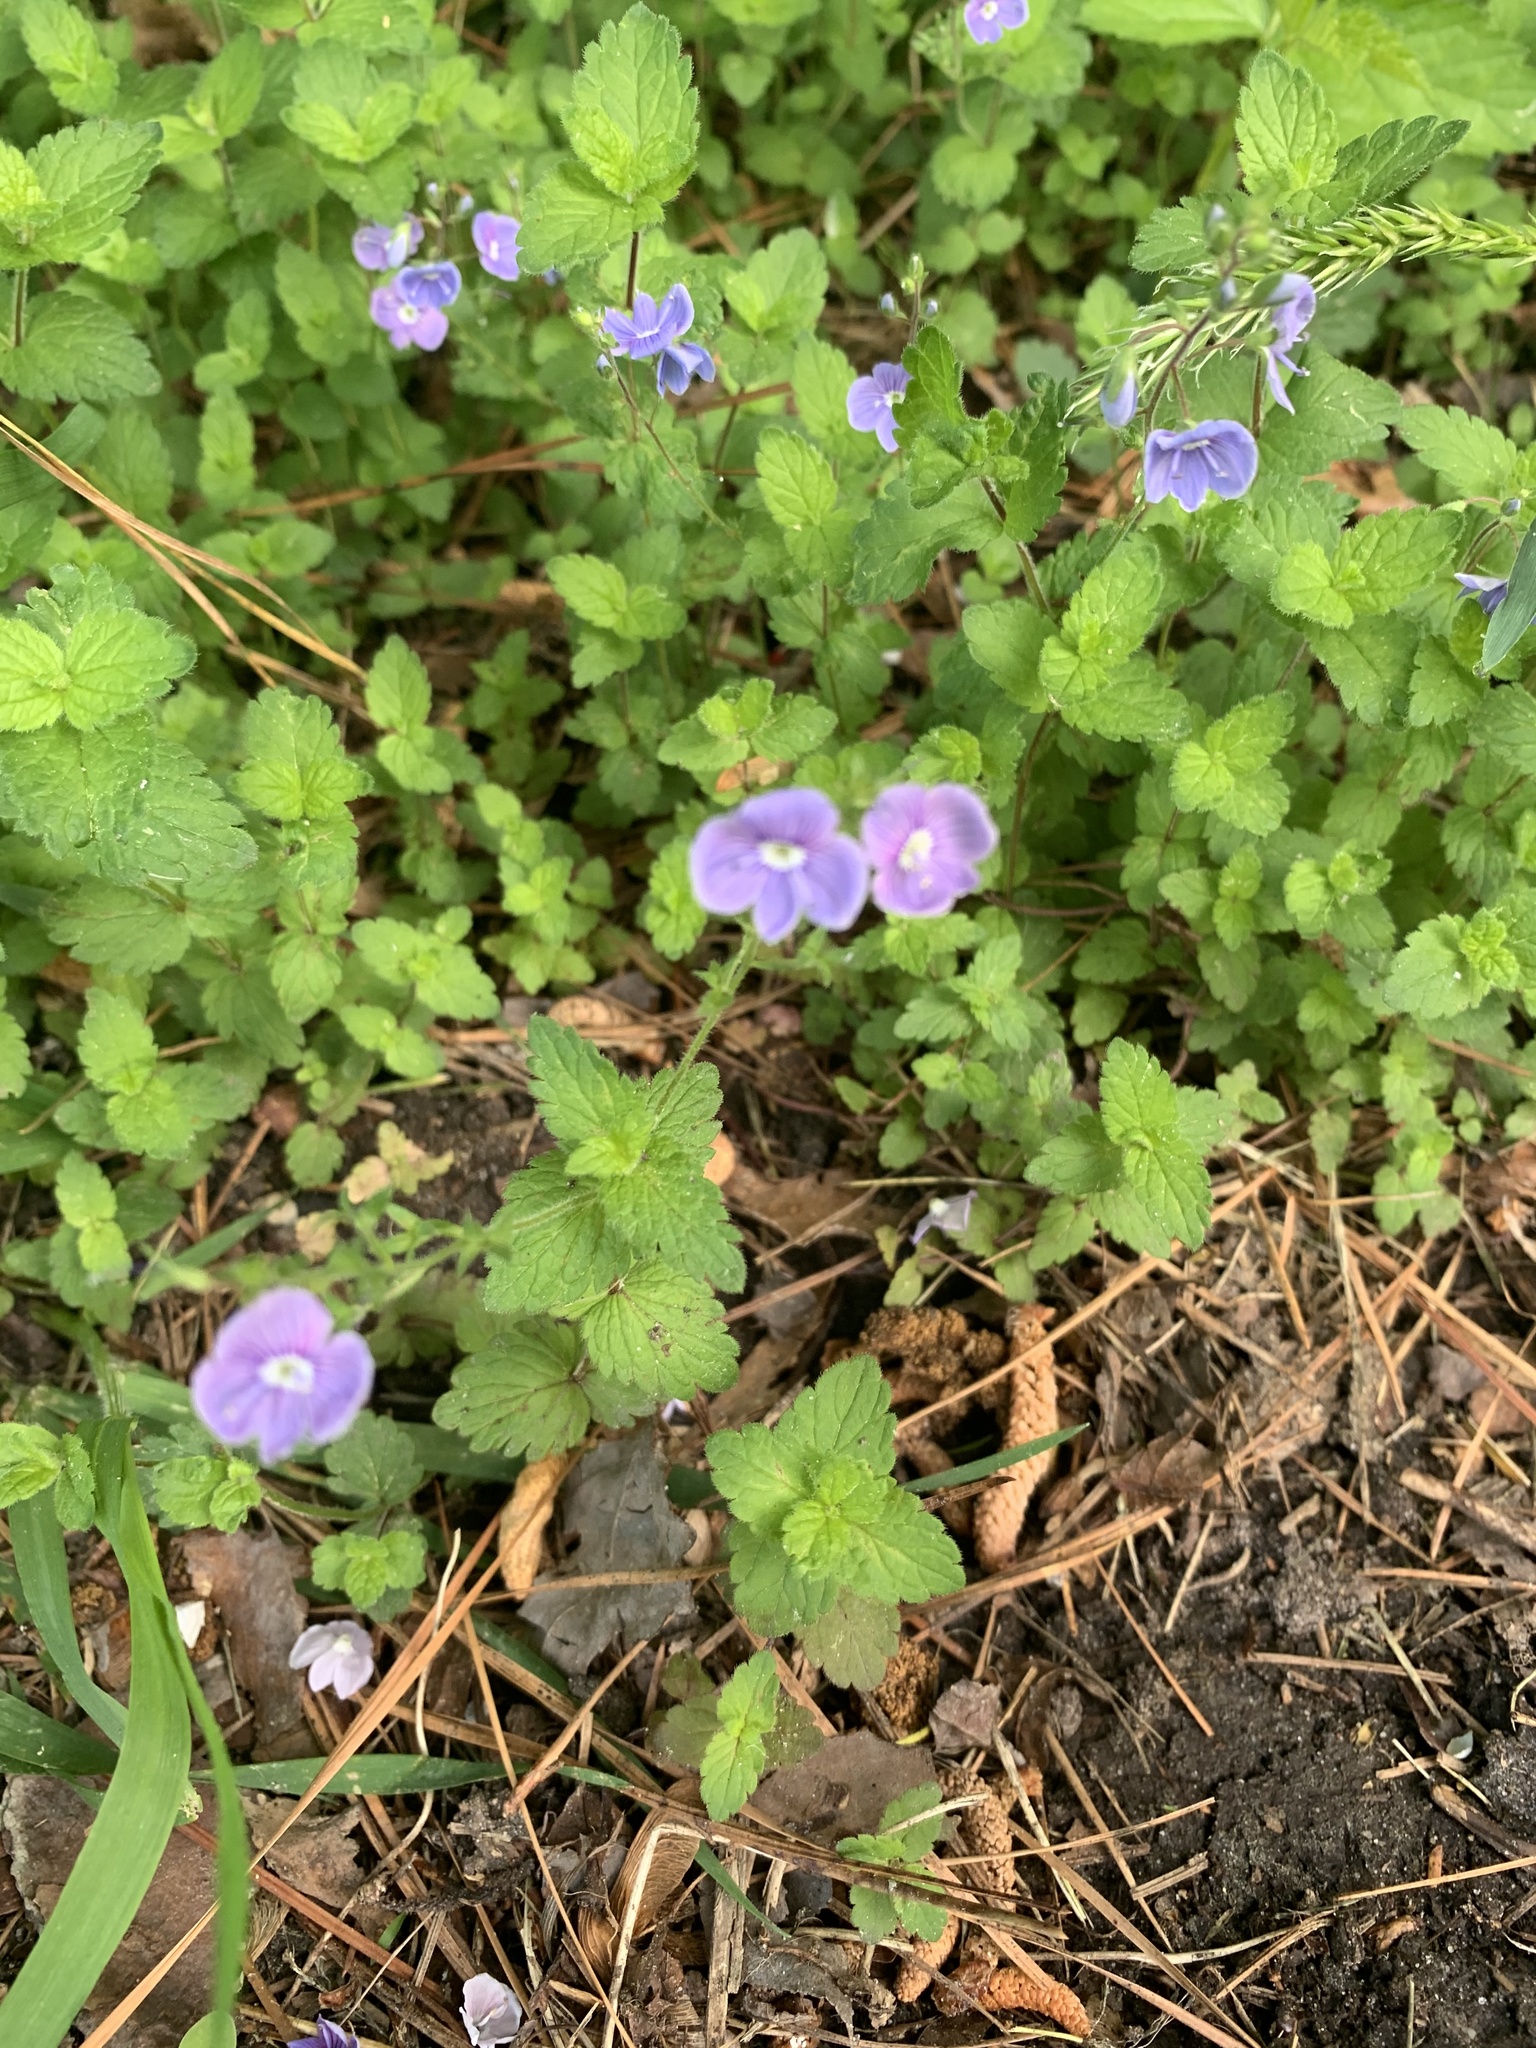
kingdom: Plantae
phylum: Tracheophyta
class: Magnoliopsida
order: Lamiales
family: Plantaginaceae
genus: Veronica
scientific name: Veronica chamaedrys
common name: Germander speedwell
